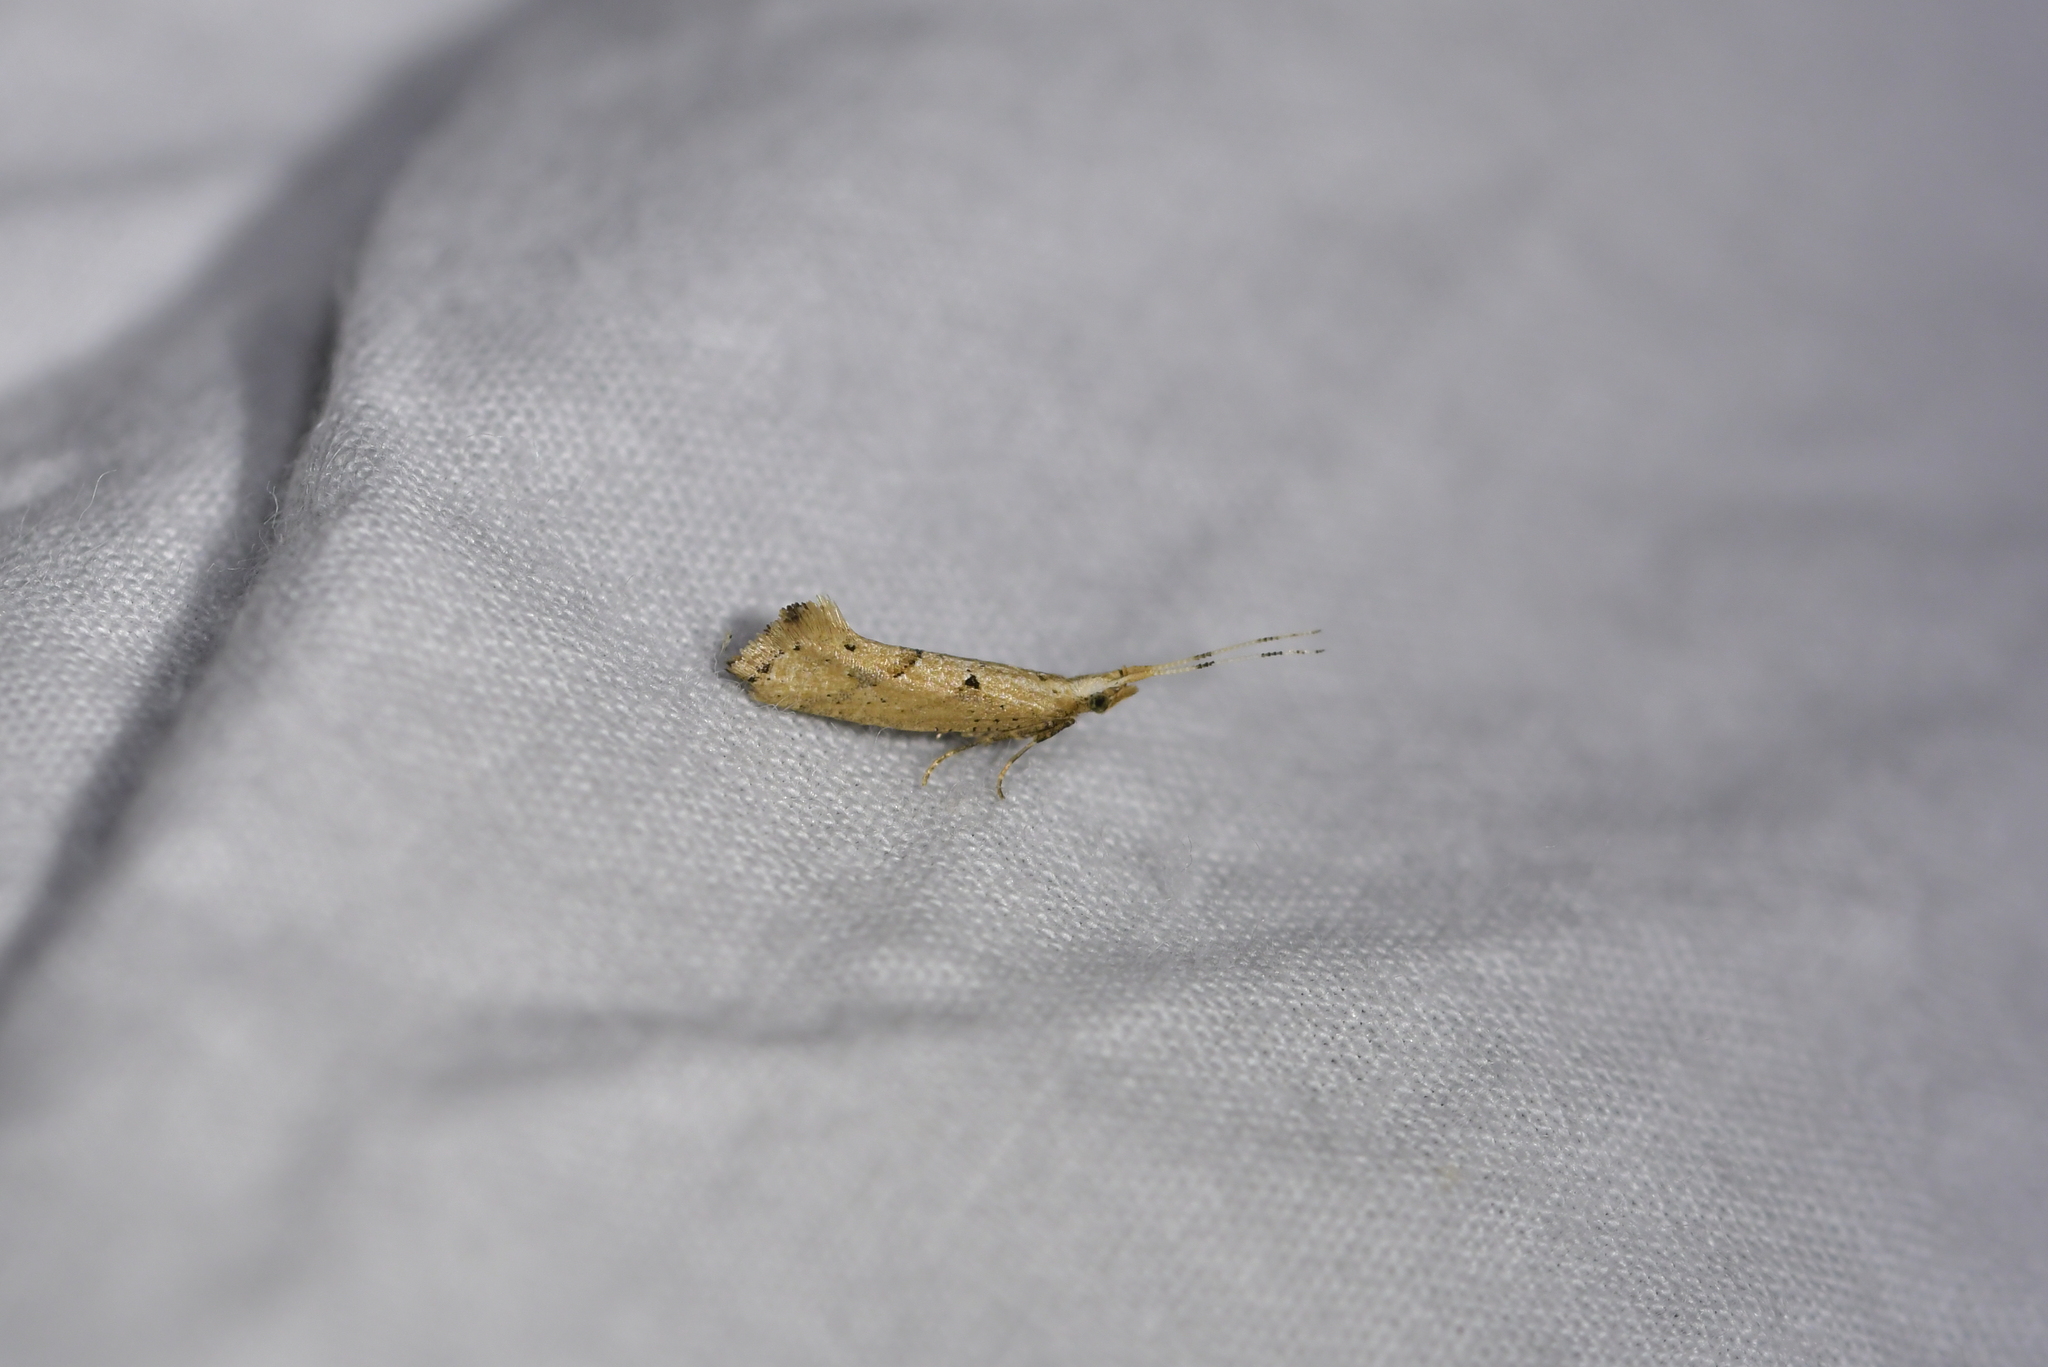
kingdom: Animalia
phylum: Arthropoda
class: Insecta
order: Lepidoptera
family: Plutellidae
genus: Leuroperna
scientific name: Leuroperna sera
